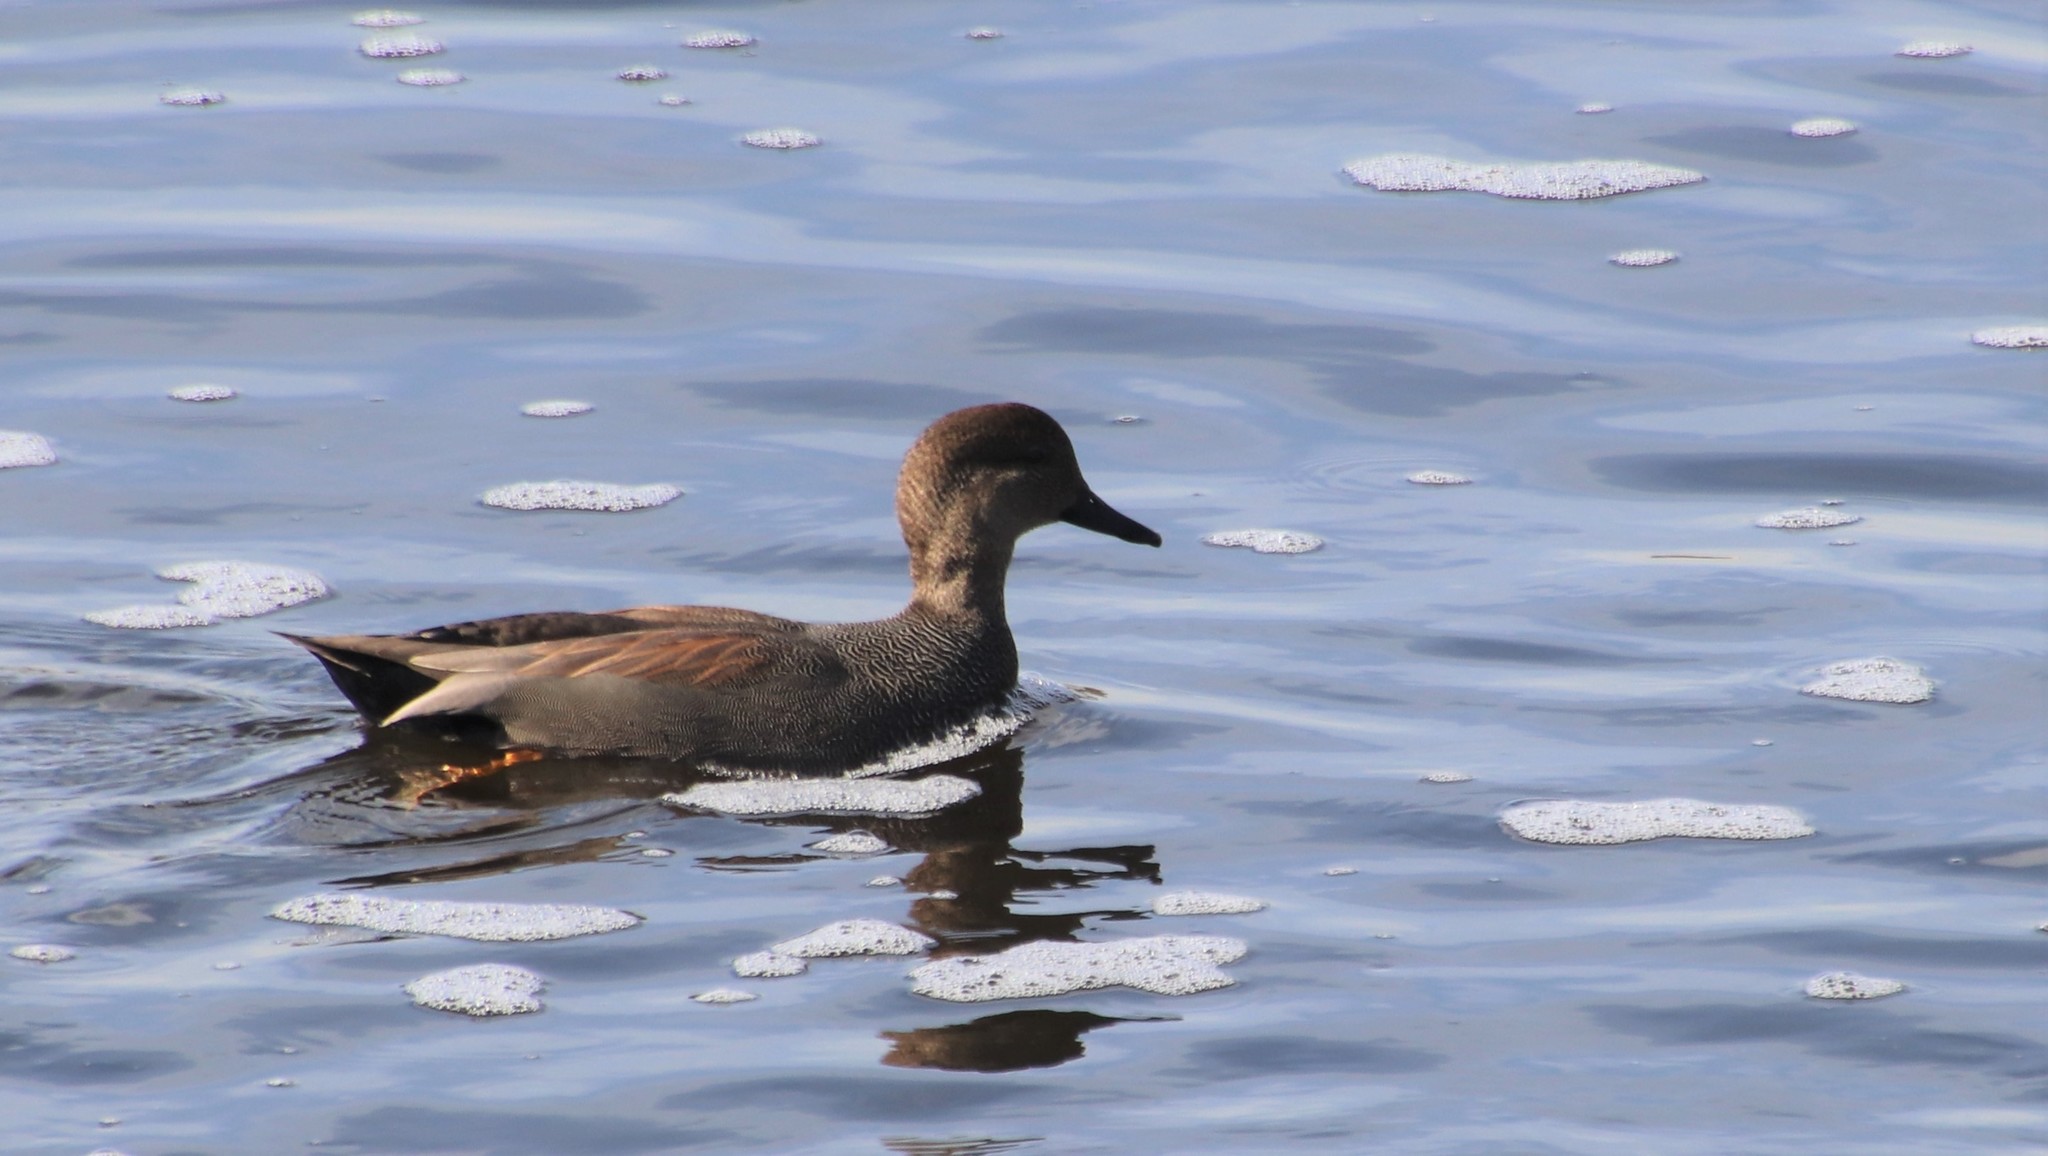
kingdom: Animalia
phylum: Chordata
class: Aves
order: Anseriformes
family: Anatidae
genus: Mareca
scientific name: Mareca strepera
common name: Gadwall
